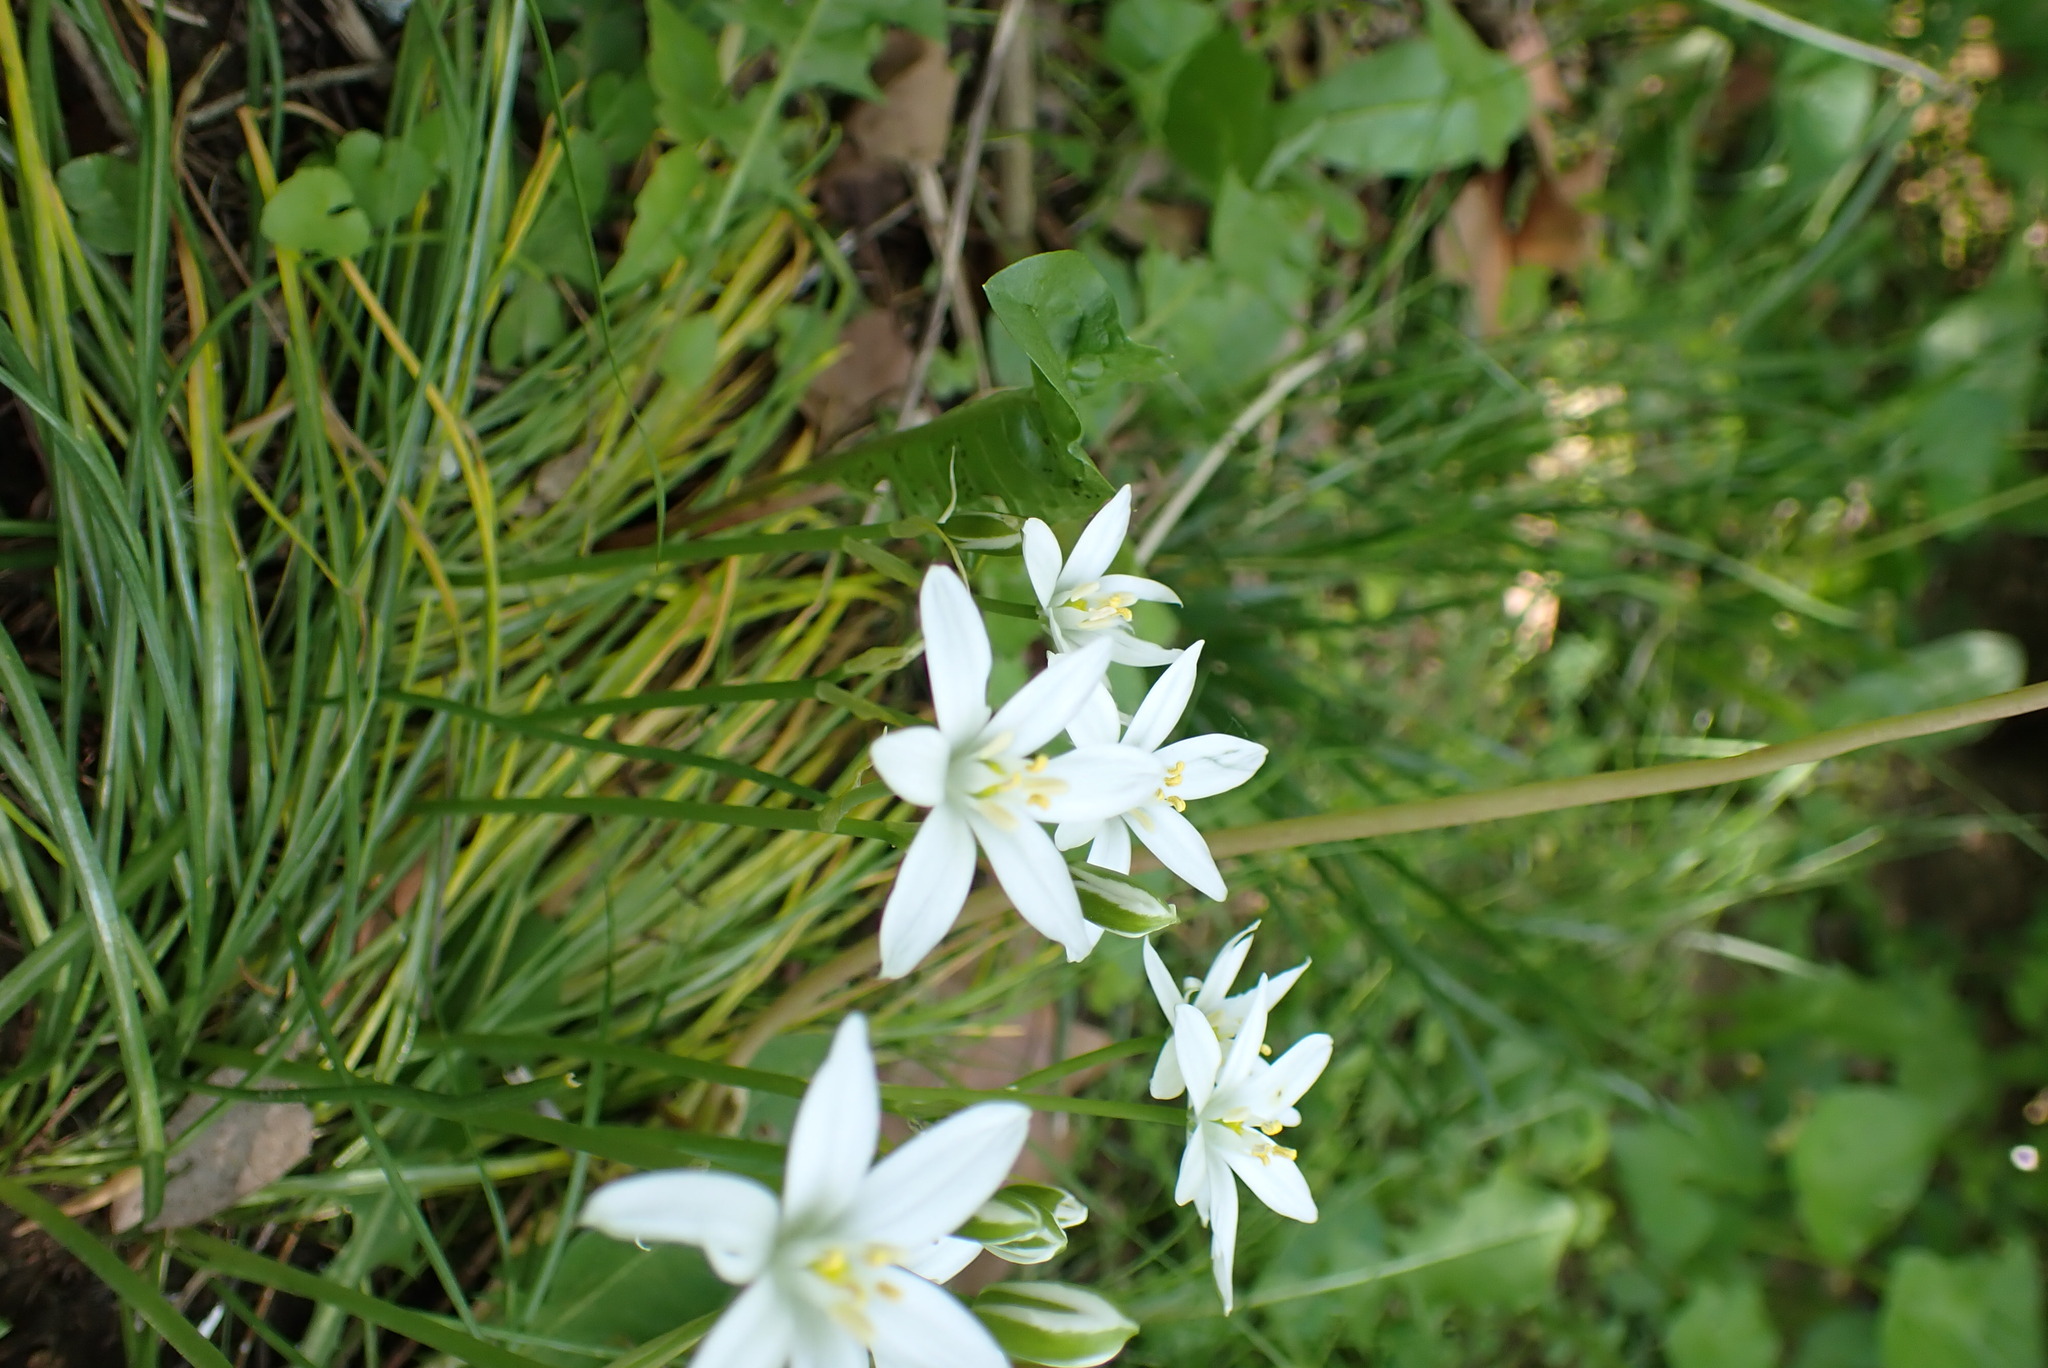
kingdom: Plantae
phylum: Tracheophyta
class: Liliopsida
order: Asparagales
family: Asparagaceae
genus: Ornithogalum
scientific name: Ornithogalum umbellatum
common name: Garden star-of-bethlehem
